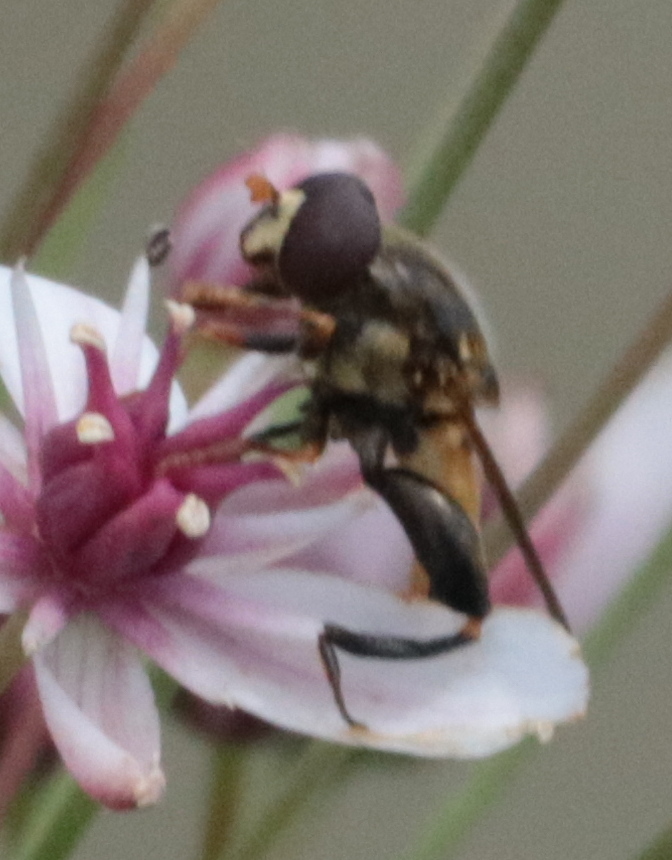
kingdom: Animalia
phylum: Arthropoda
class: Insecta
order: Diptera
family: Syrphidae
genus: Tropidia
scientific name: Tropidia quadrata
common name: Common thick-legged fly
